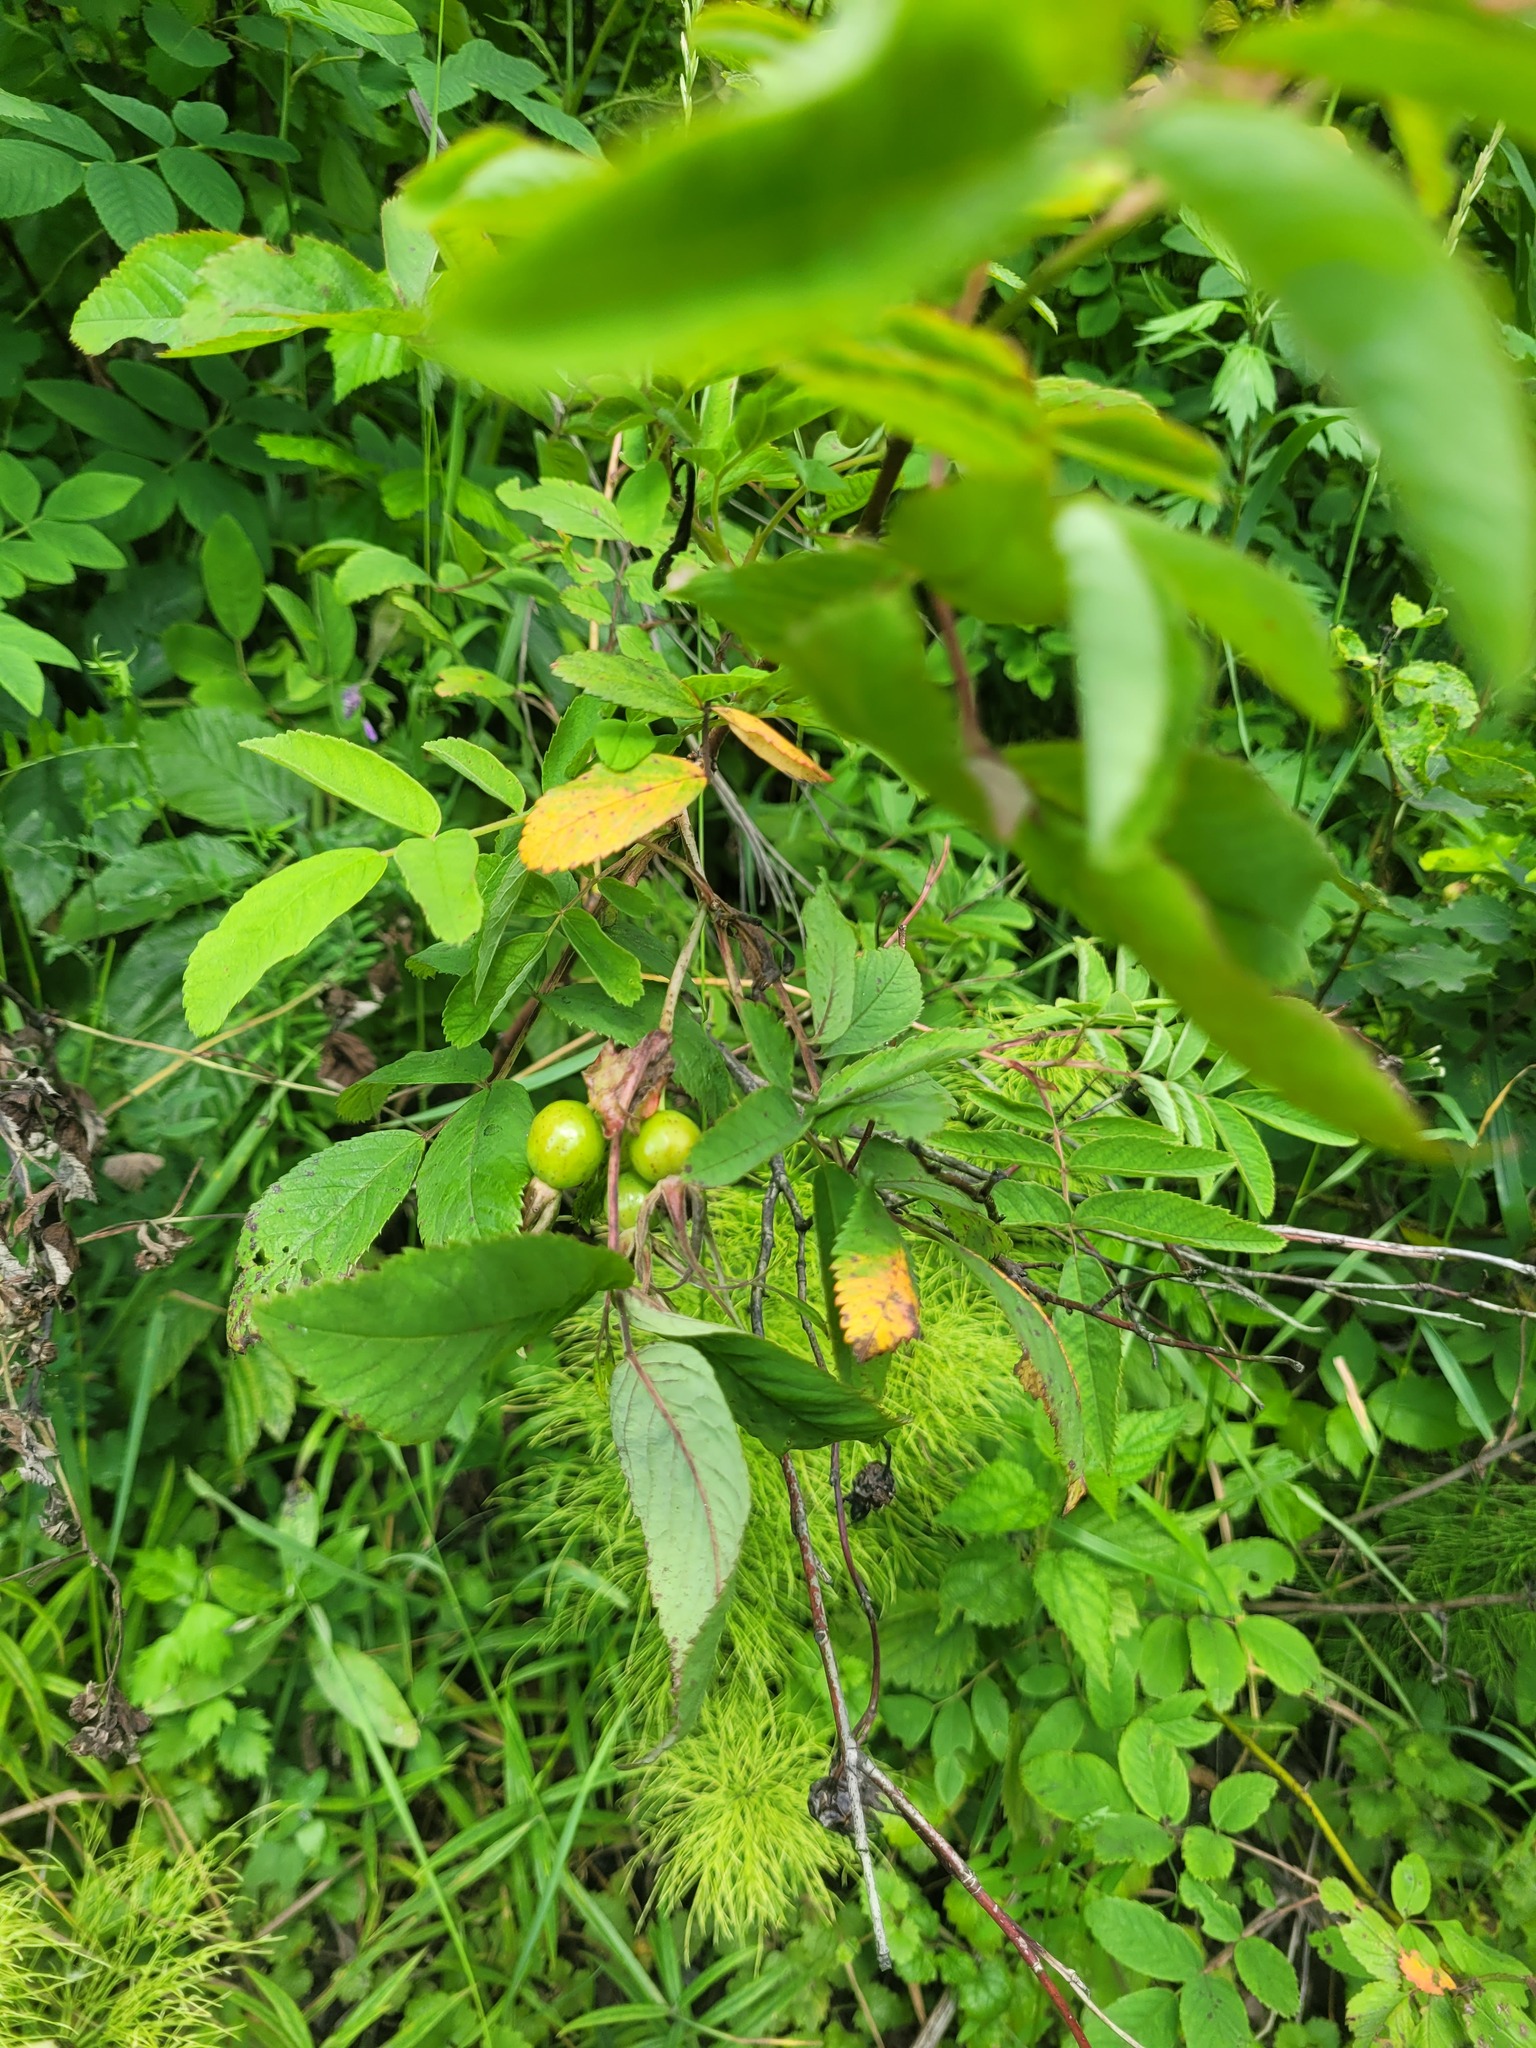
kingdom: Plantae
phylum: Tracheophyta
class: Magnoliopsida
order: Rosales
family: Rosaceae
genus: Rosa
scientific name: Rosa majalis
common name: Cinnamon rose
